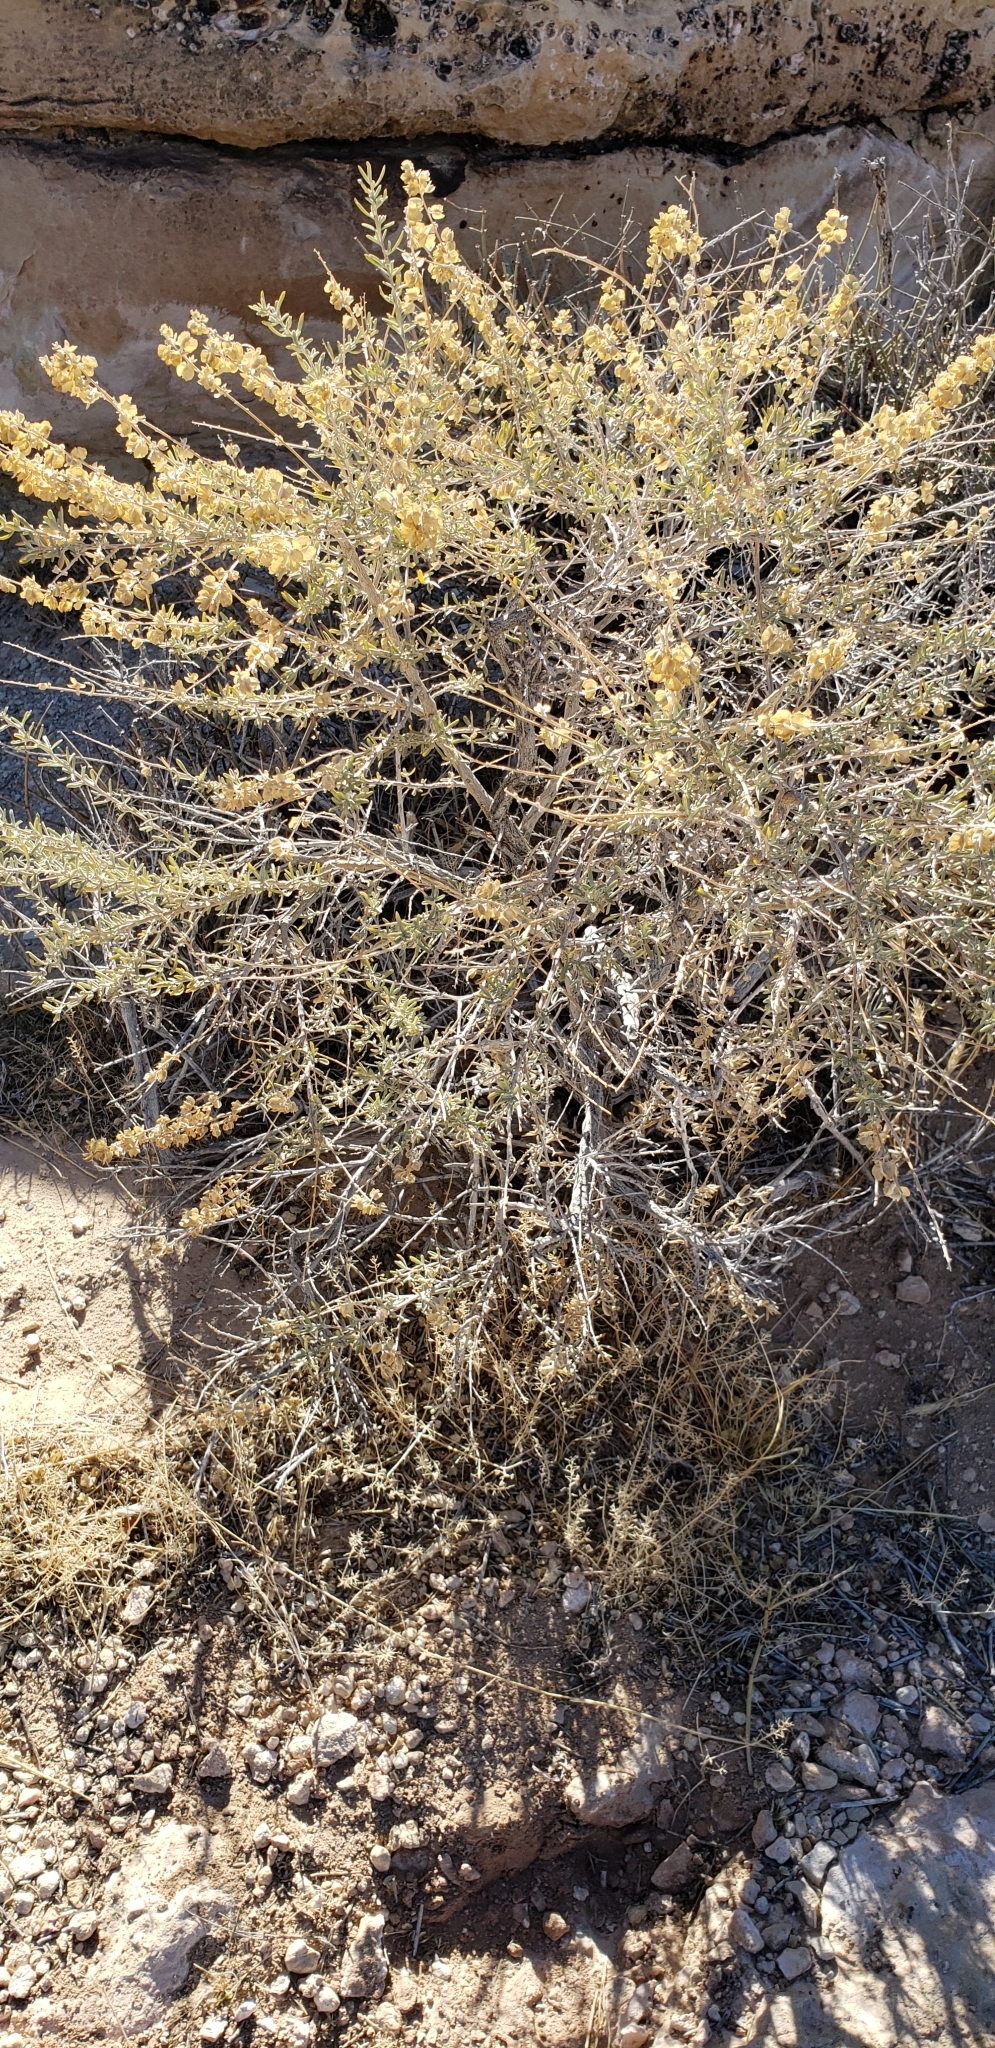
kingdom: Plantae
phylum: Tracheophyta
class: Magnoliopsida
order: Caryophyllales
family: Amaranthaceae
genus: Atriplex
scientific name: Atriplex canescens
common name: Four-wing saltbush
